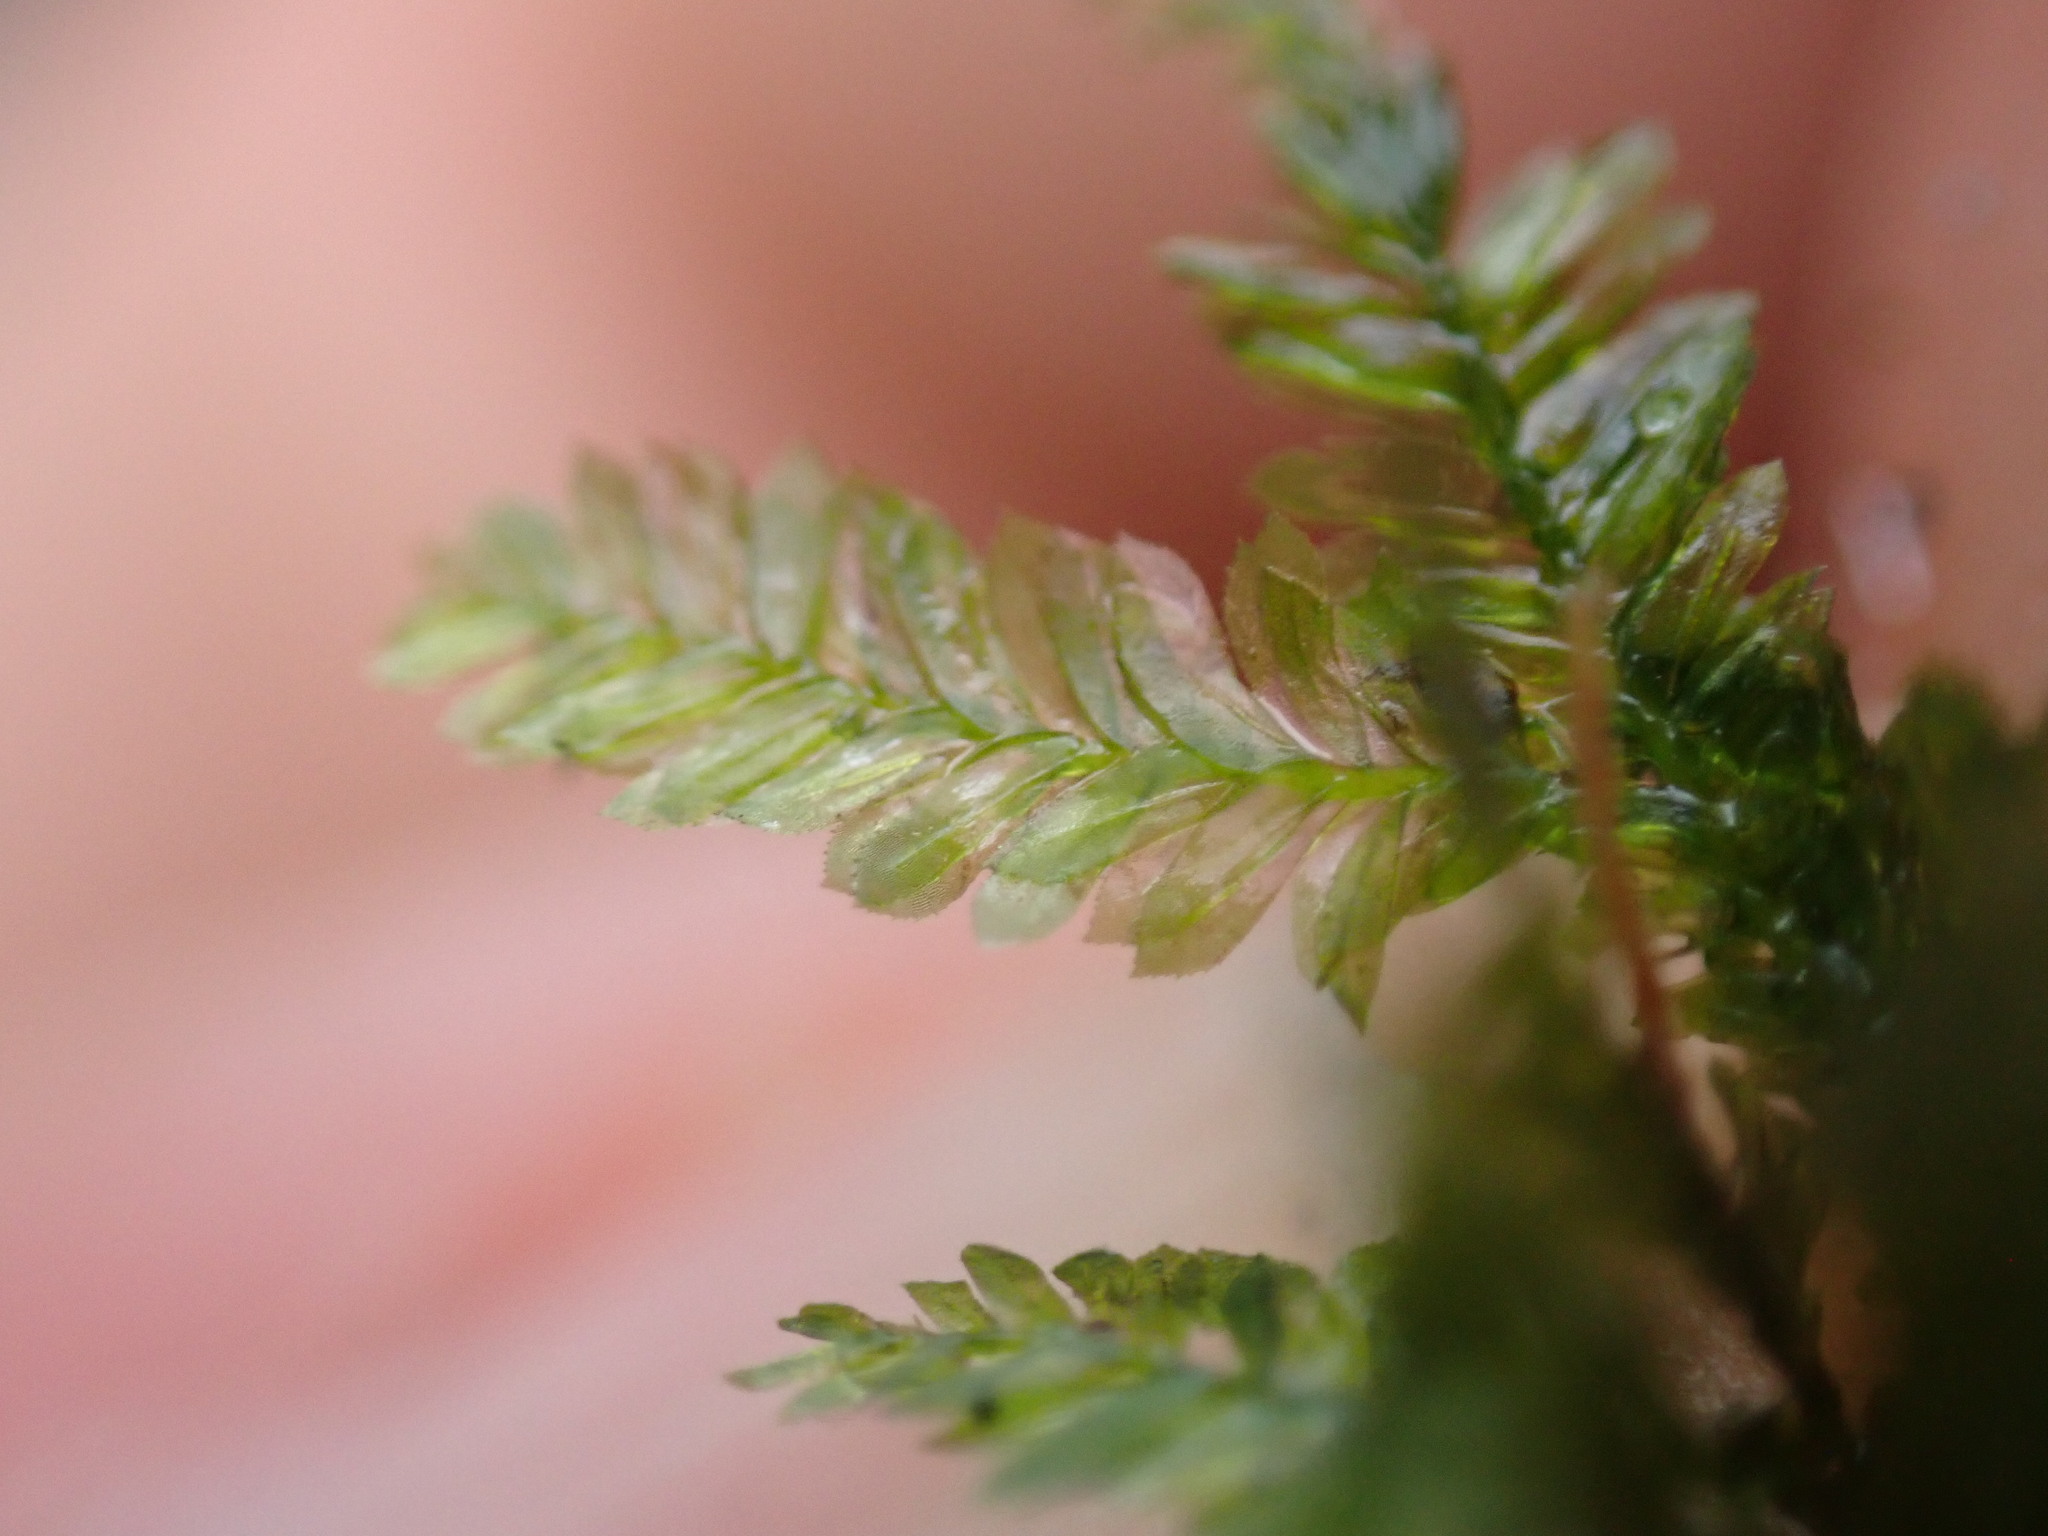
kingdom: Plantae
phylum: Bryophyta
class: Bryopsida
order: Hypnales
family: Neckeraceae
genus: Dannorrisia
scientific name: Dannorrisia bigelovii
